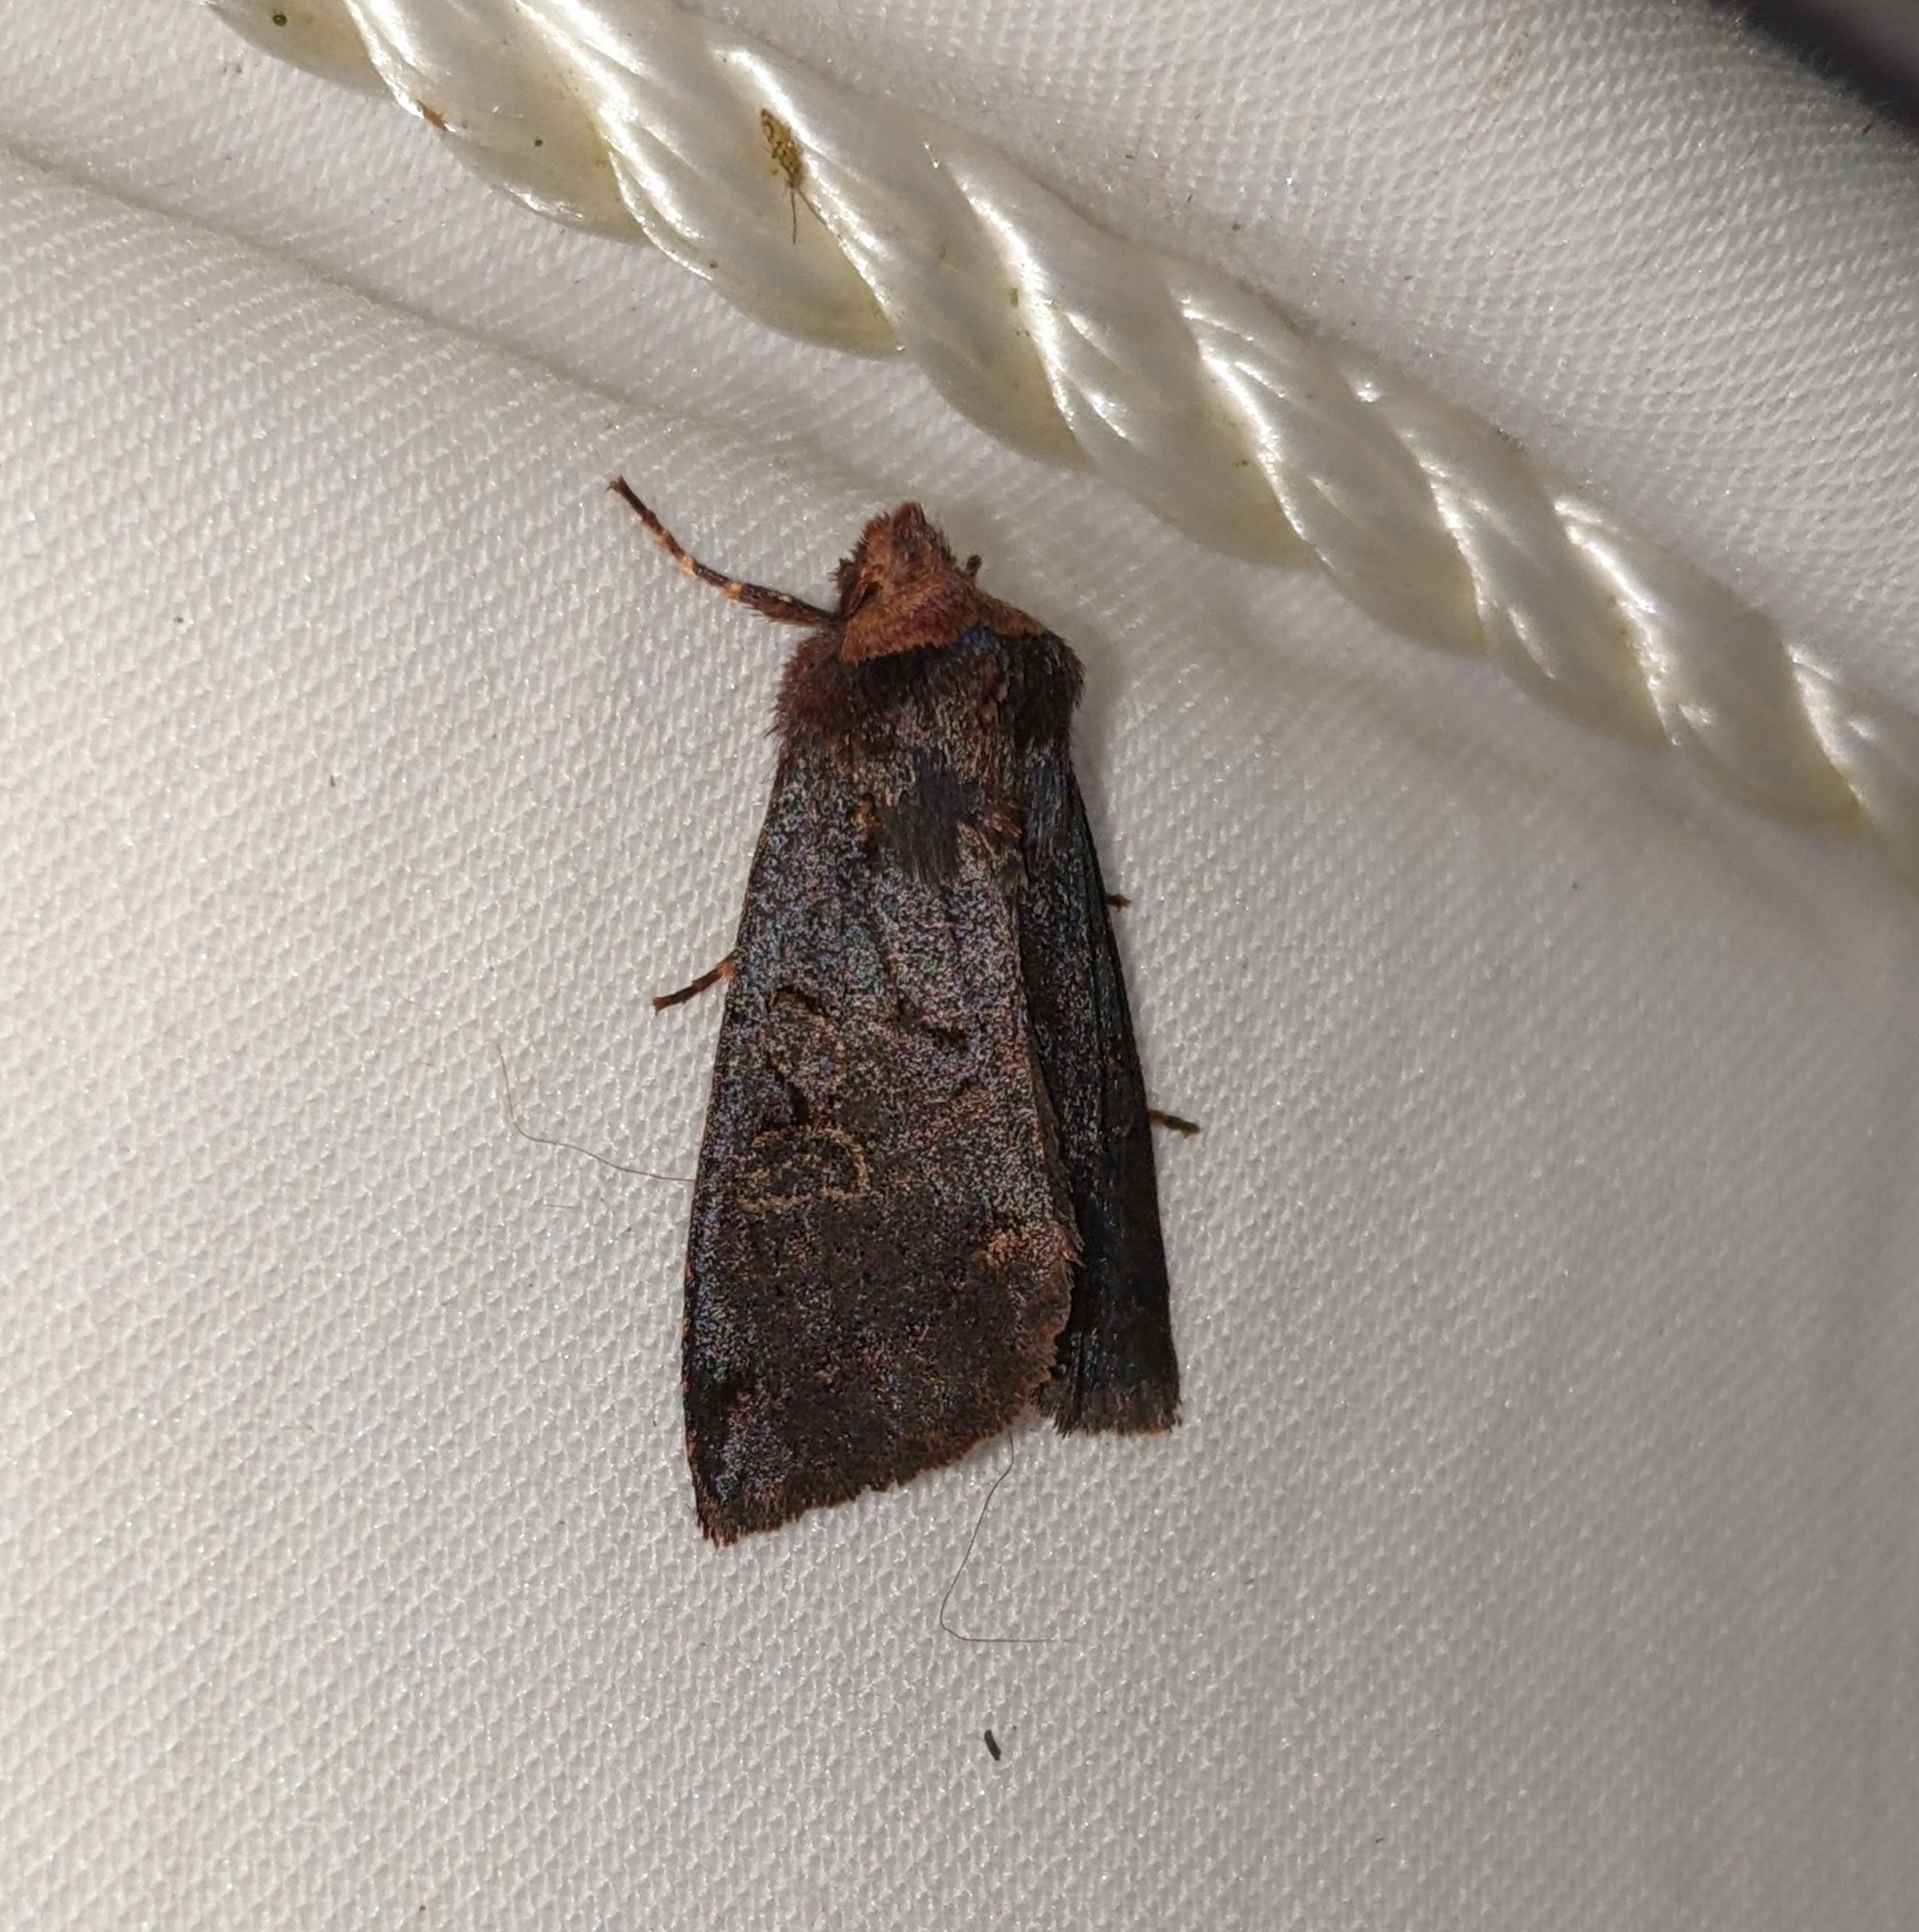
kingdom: Animalia
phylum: Arthropoda
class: Insecta
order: Lepidoptera
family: Noctuidae
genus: Orthosia
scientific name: Orthosia praeses
